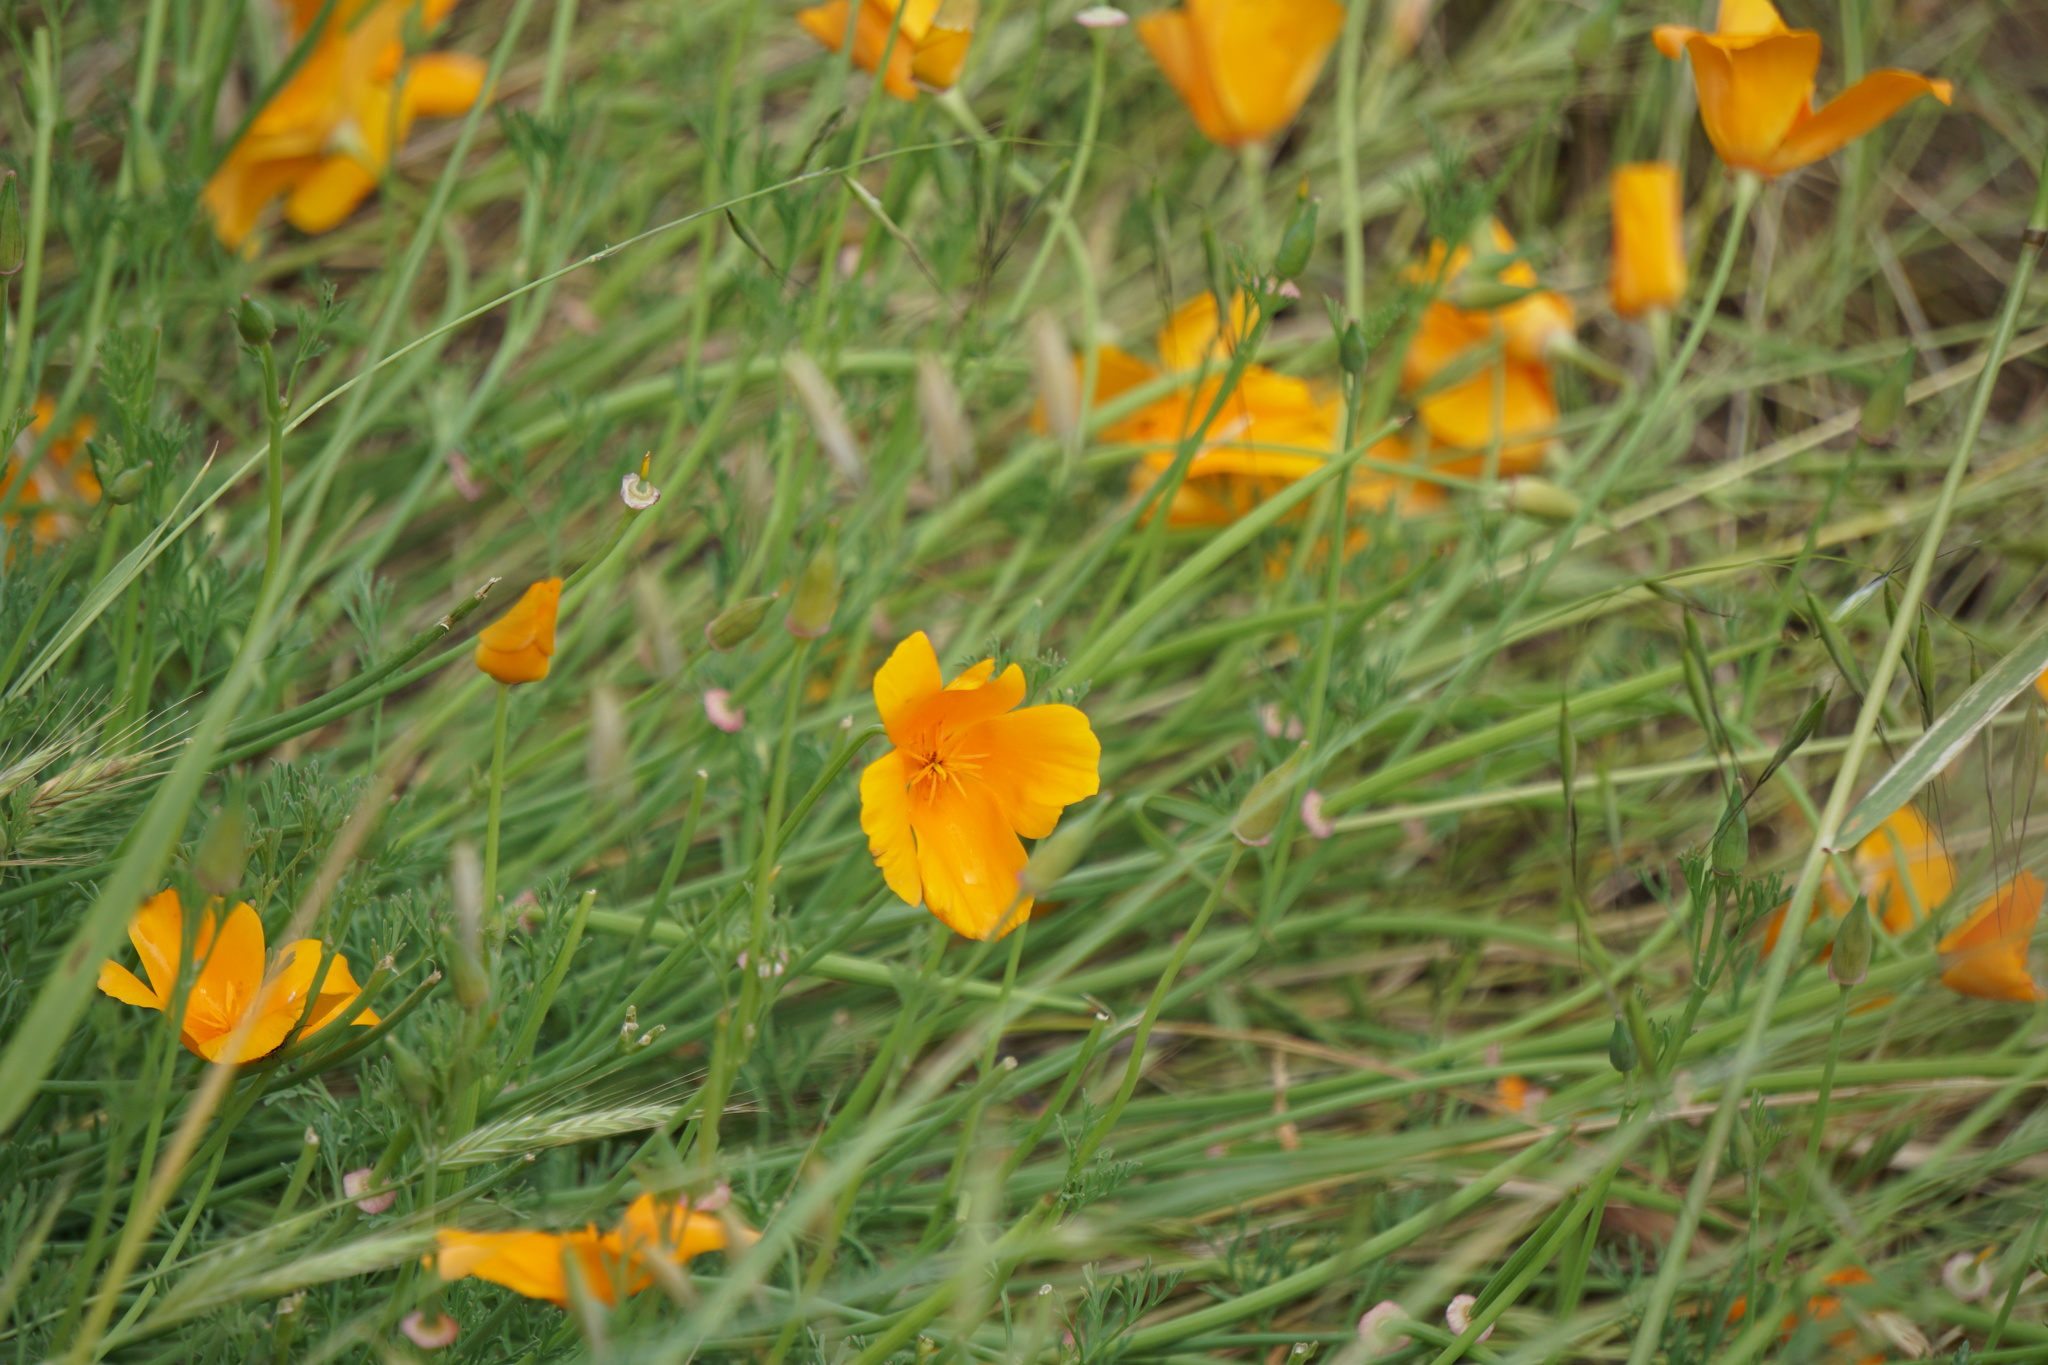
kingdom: Plantae
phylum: Tracheophyta
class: Magnoliopsida
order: Ranunculales
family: Papaveraceae
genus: Eschscholzia
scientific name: Eschscholzia californica
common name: California poppy
